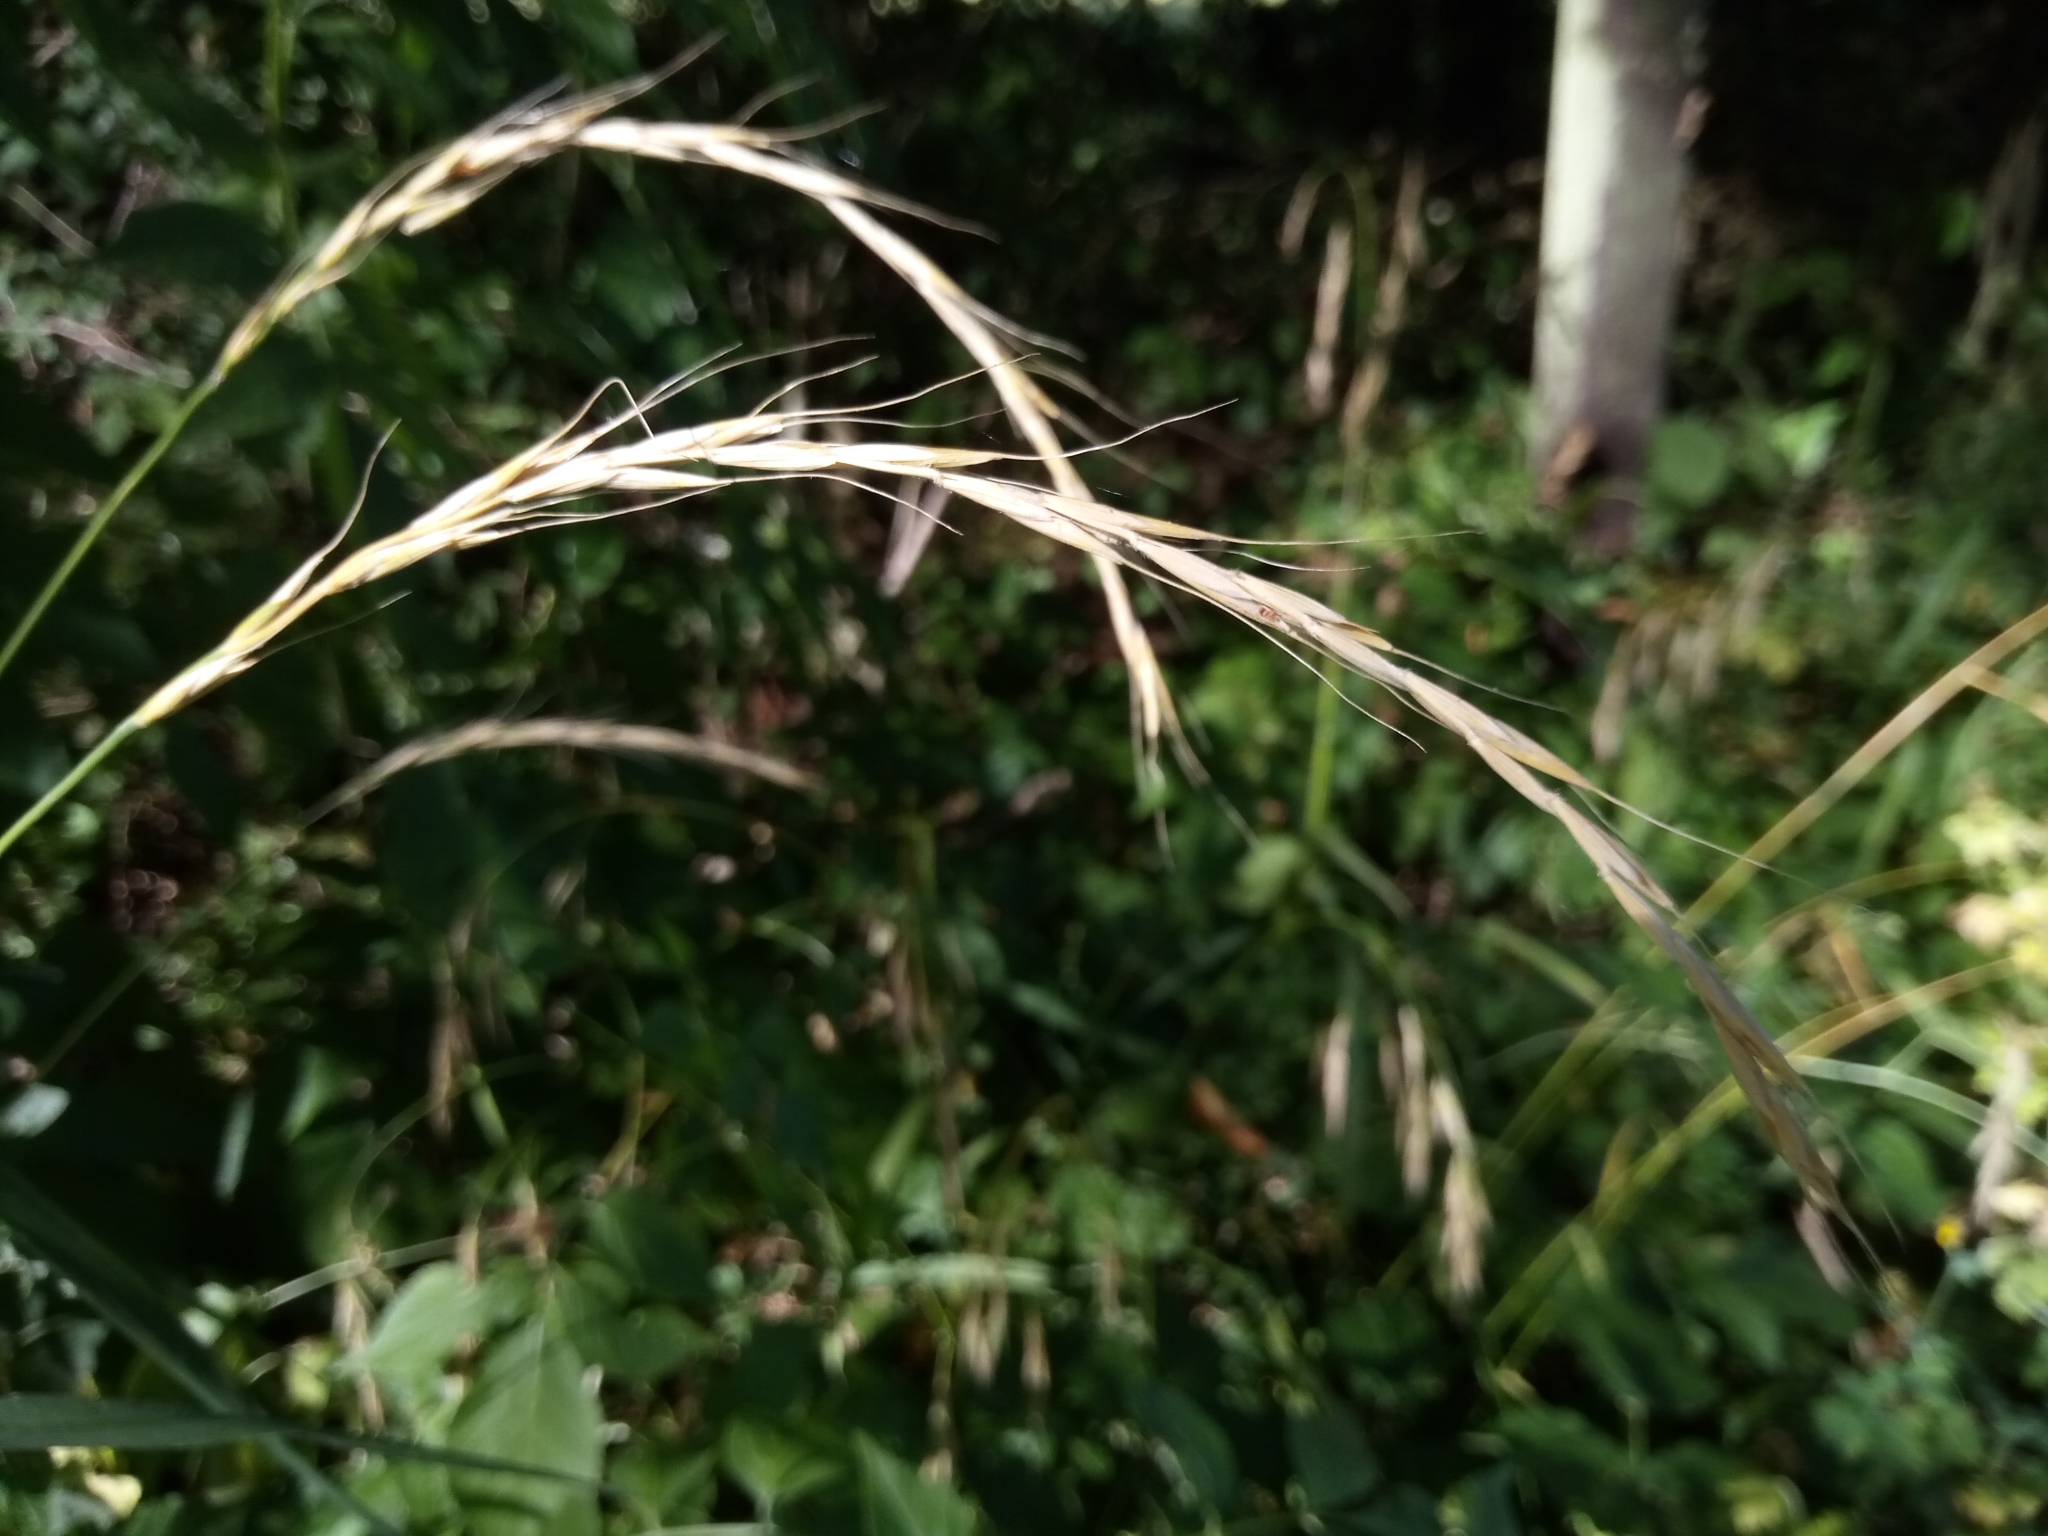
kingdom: Plantae
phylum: Tracheophyta
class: Liliopsida
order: Poales
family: Poaceae
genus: Elymus
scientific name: Elymus caninus
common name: Bearded couch
